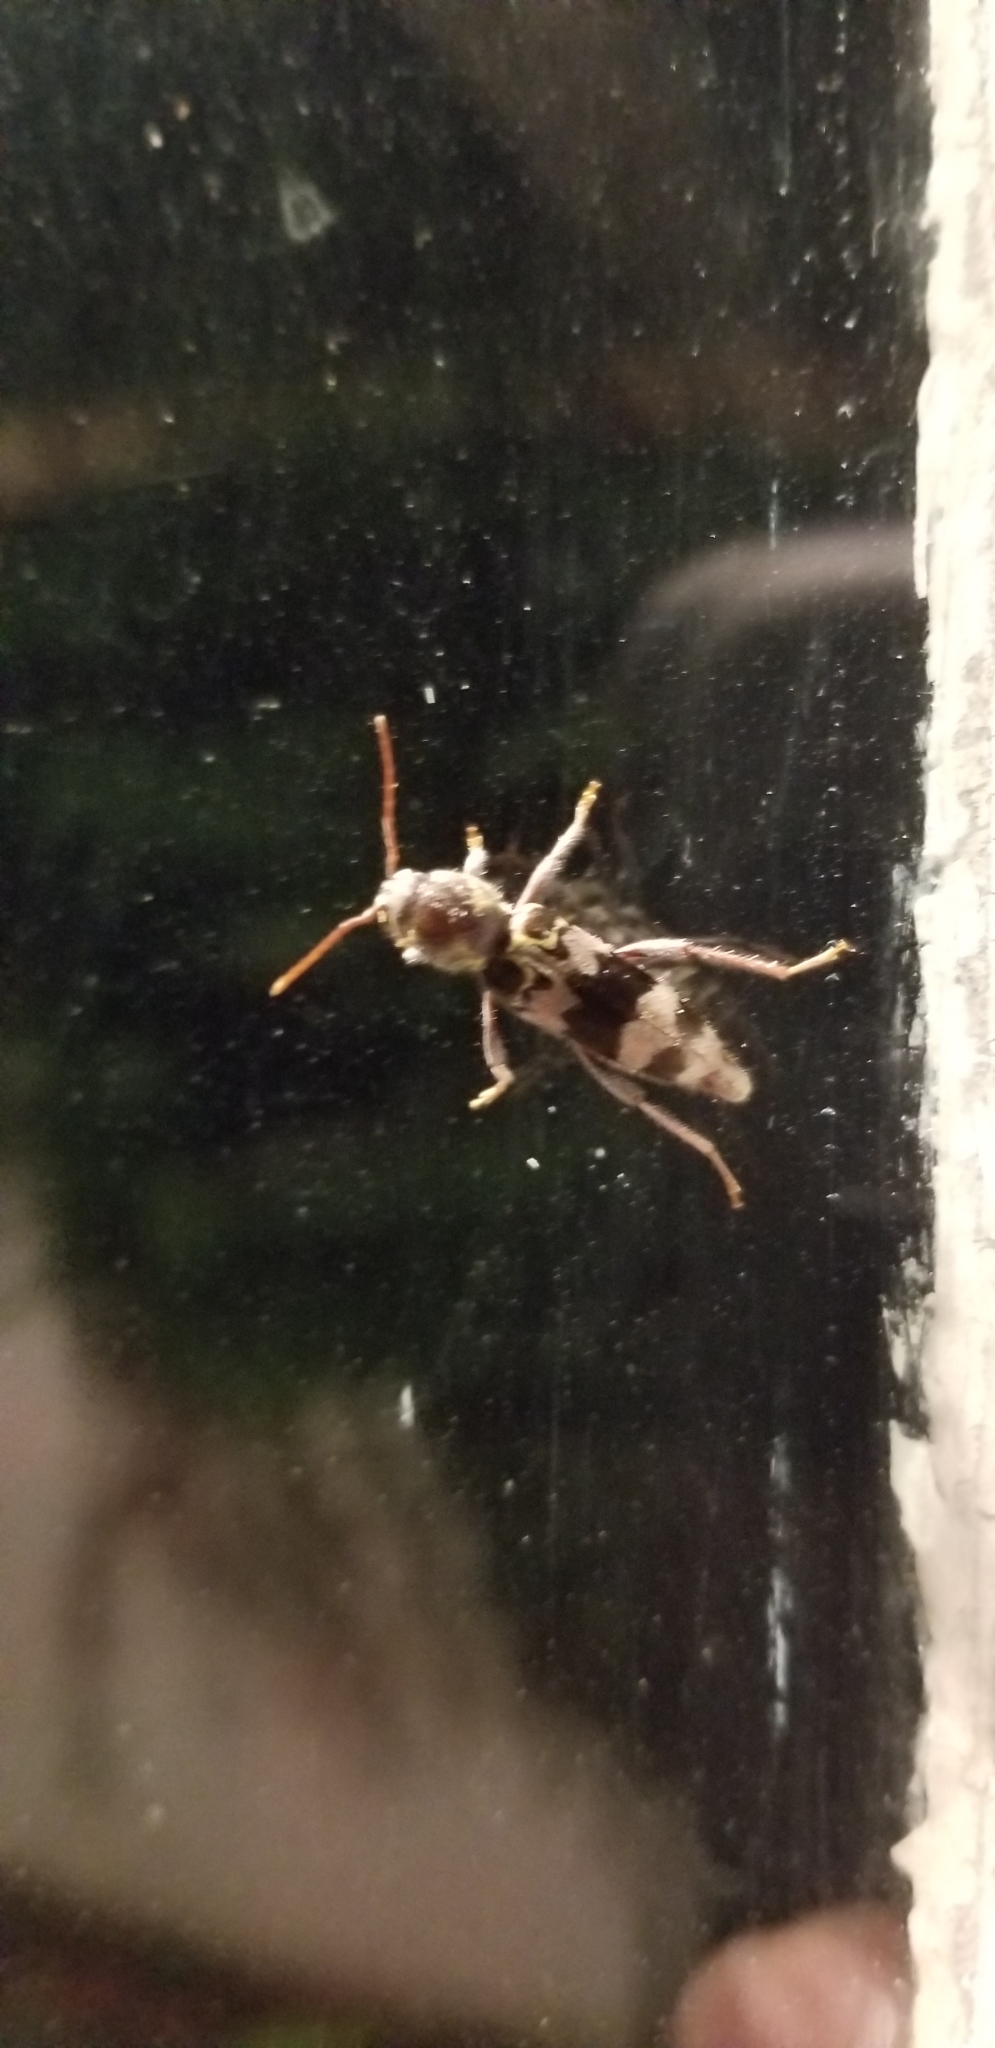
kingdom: Animalia
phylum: Arthropoda
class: Insecta
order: Coleoptera
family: Cerambycidae
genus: Xylotrechus
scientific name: Xylotrechus colonus
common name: Long-horned beetle
